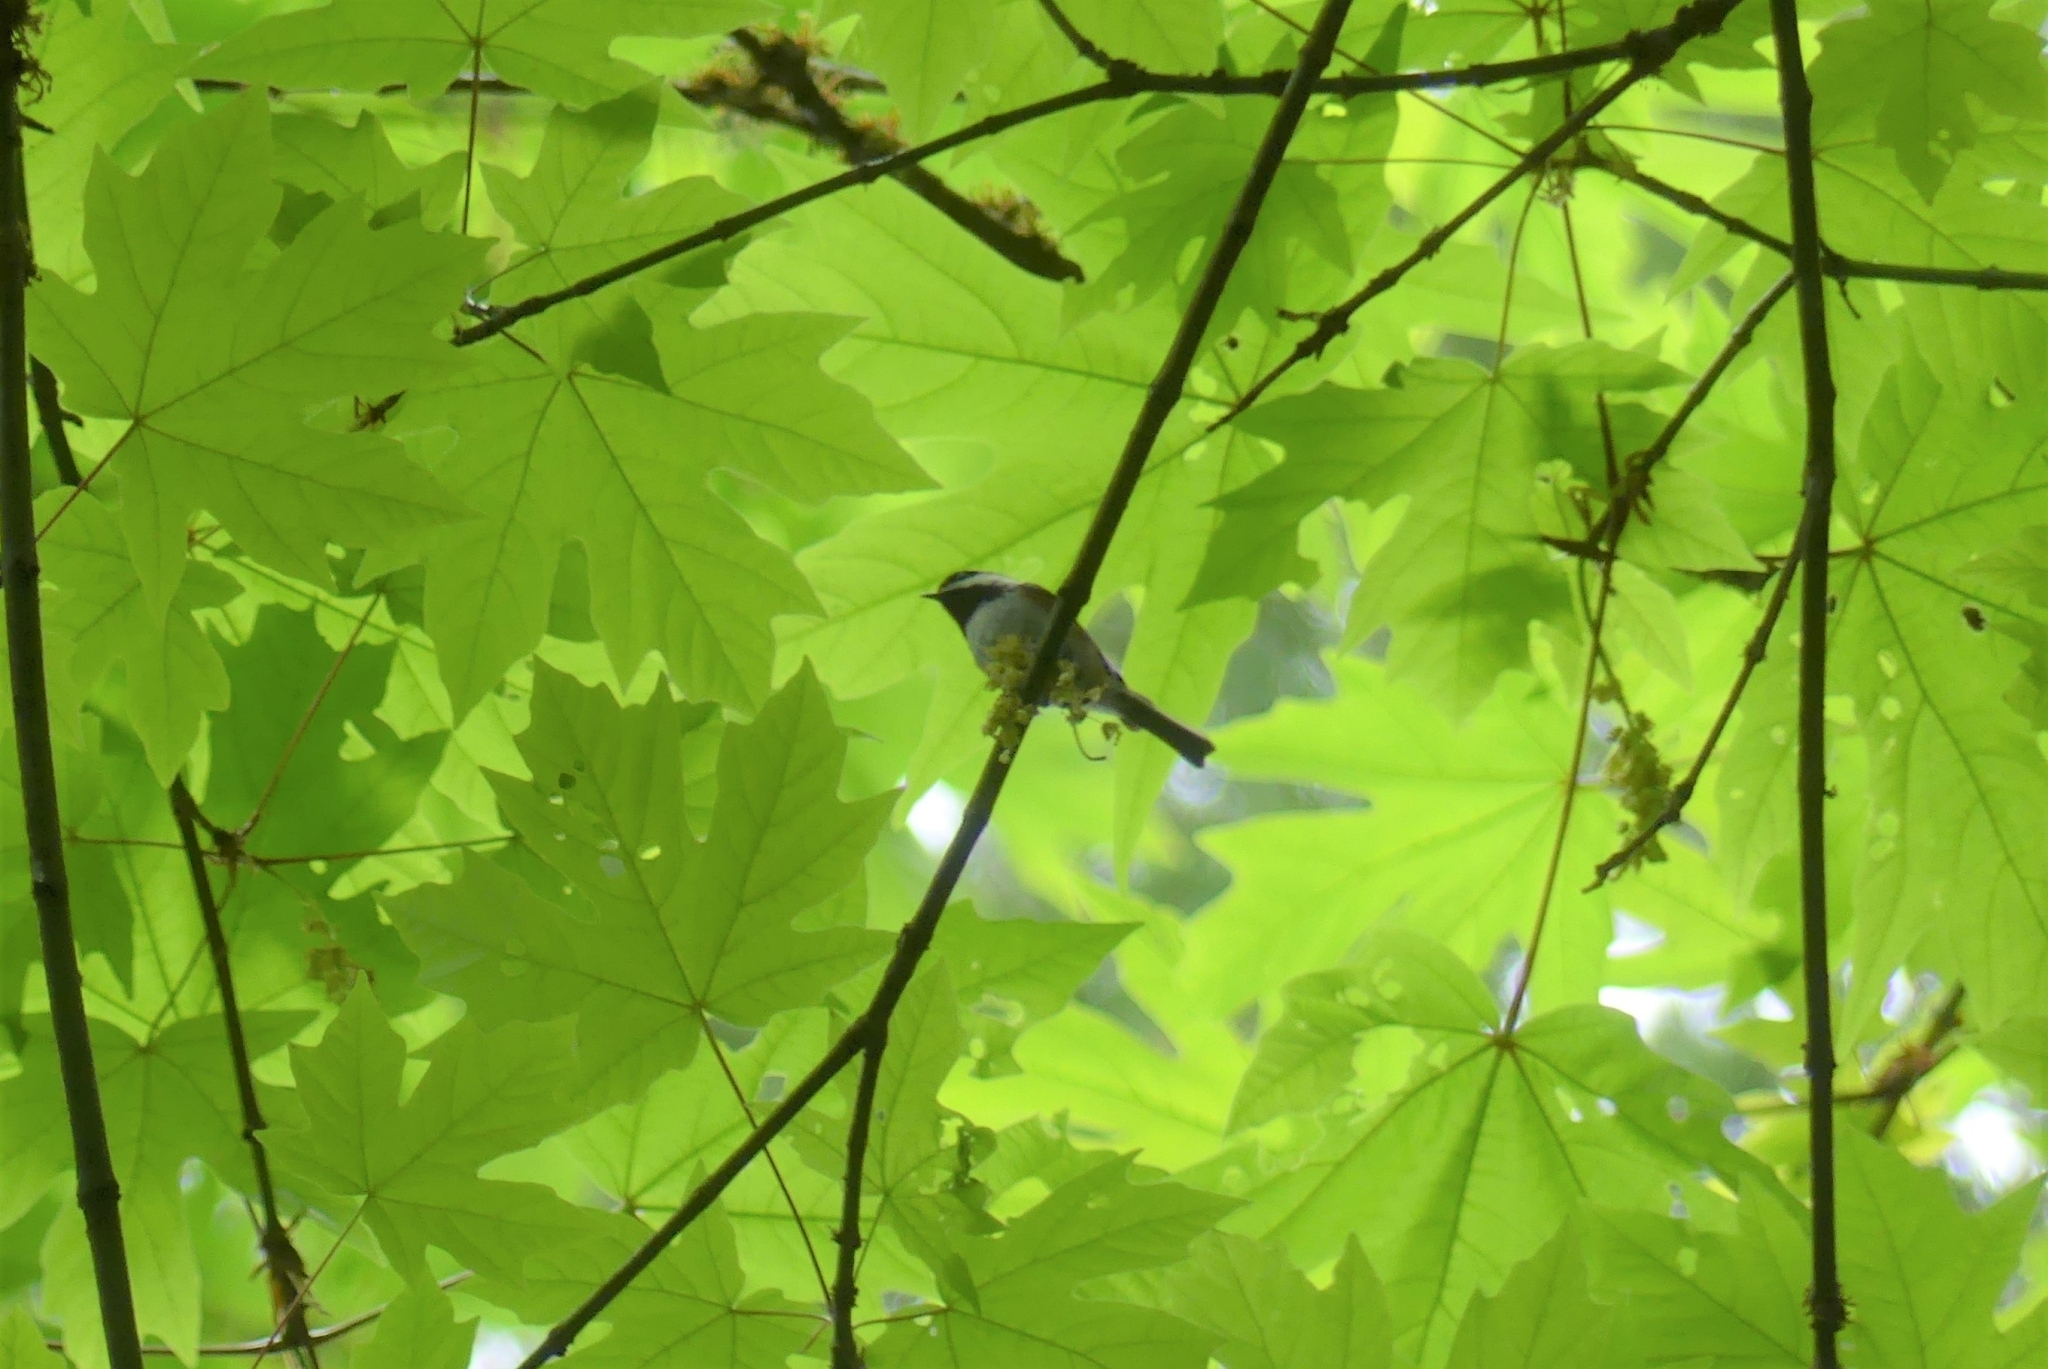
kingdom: Animalia
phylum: Chordata
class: Aves
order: Passeriformes
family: Paridae
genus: Poecile
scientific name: Poecile rufescens
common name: Chestnut-backed chickadee
